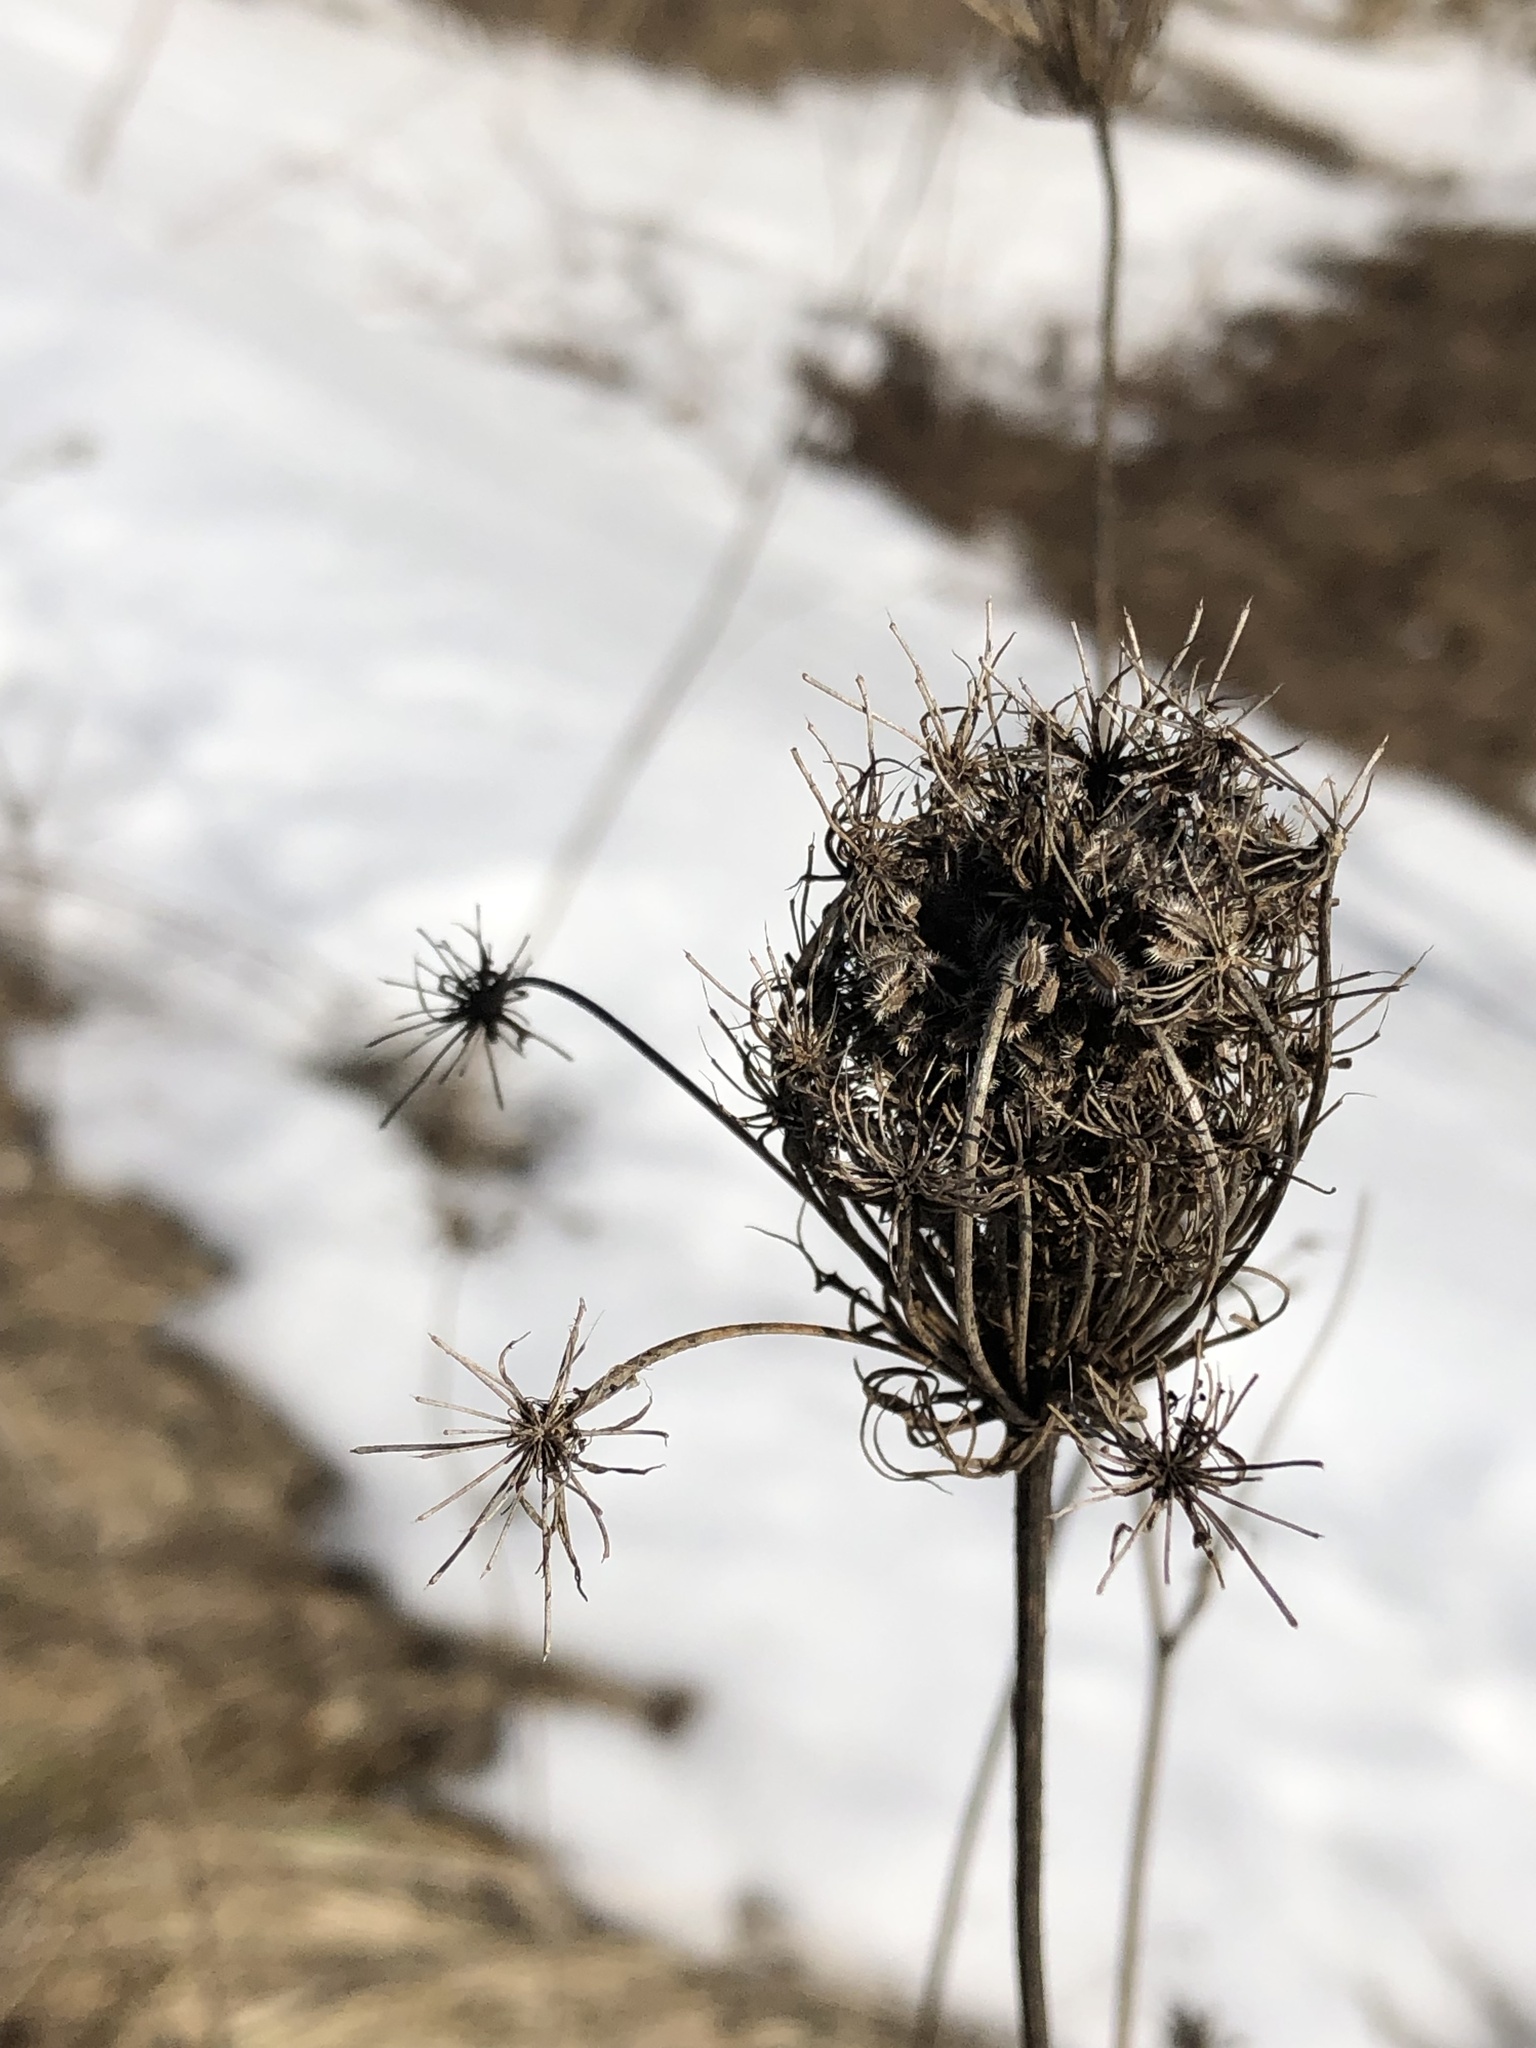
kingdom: Plantae
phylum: Tracheophyta
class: Magnoliopsida
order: Apiales
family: Apiaceae
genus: Daucus
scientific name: Daucus carota
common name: Wild carrot
